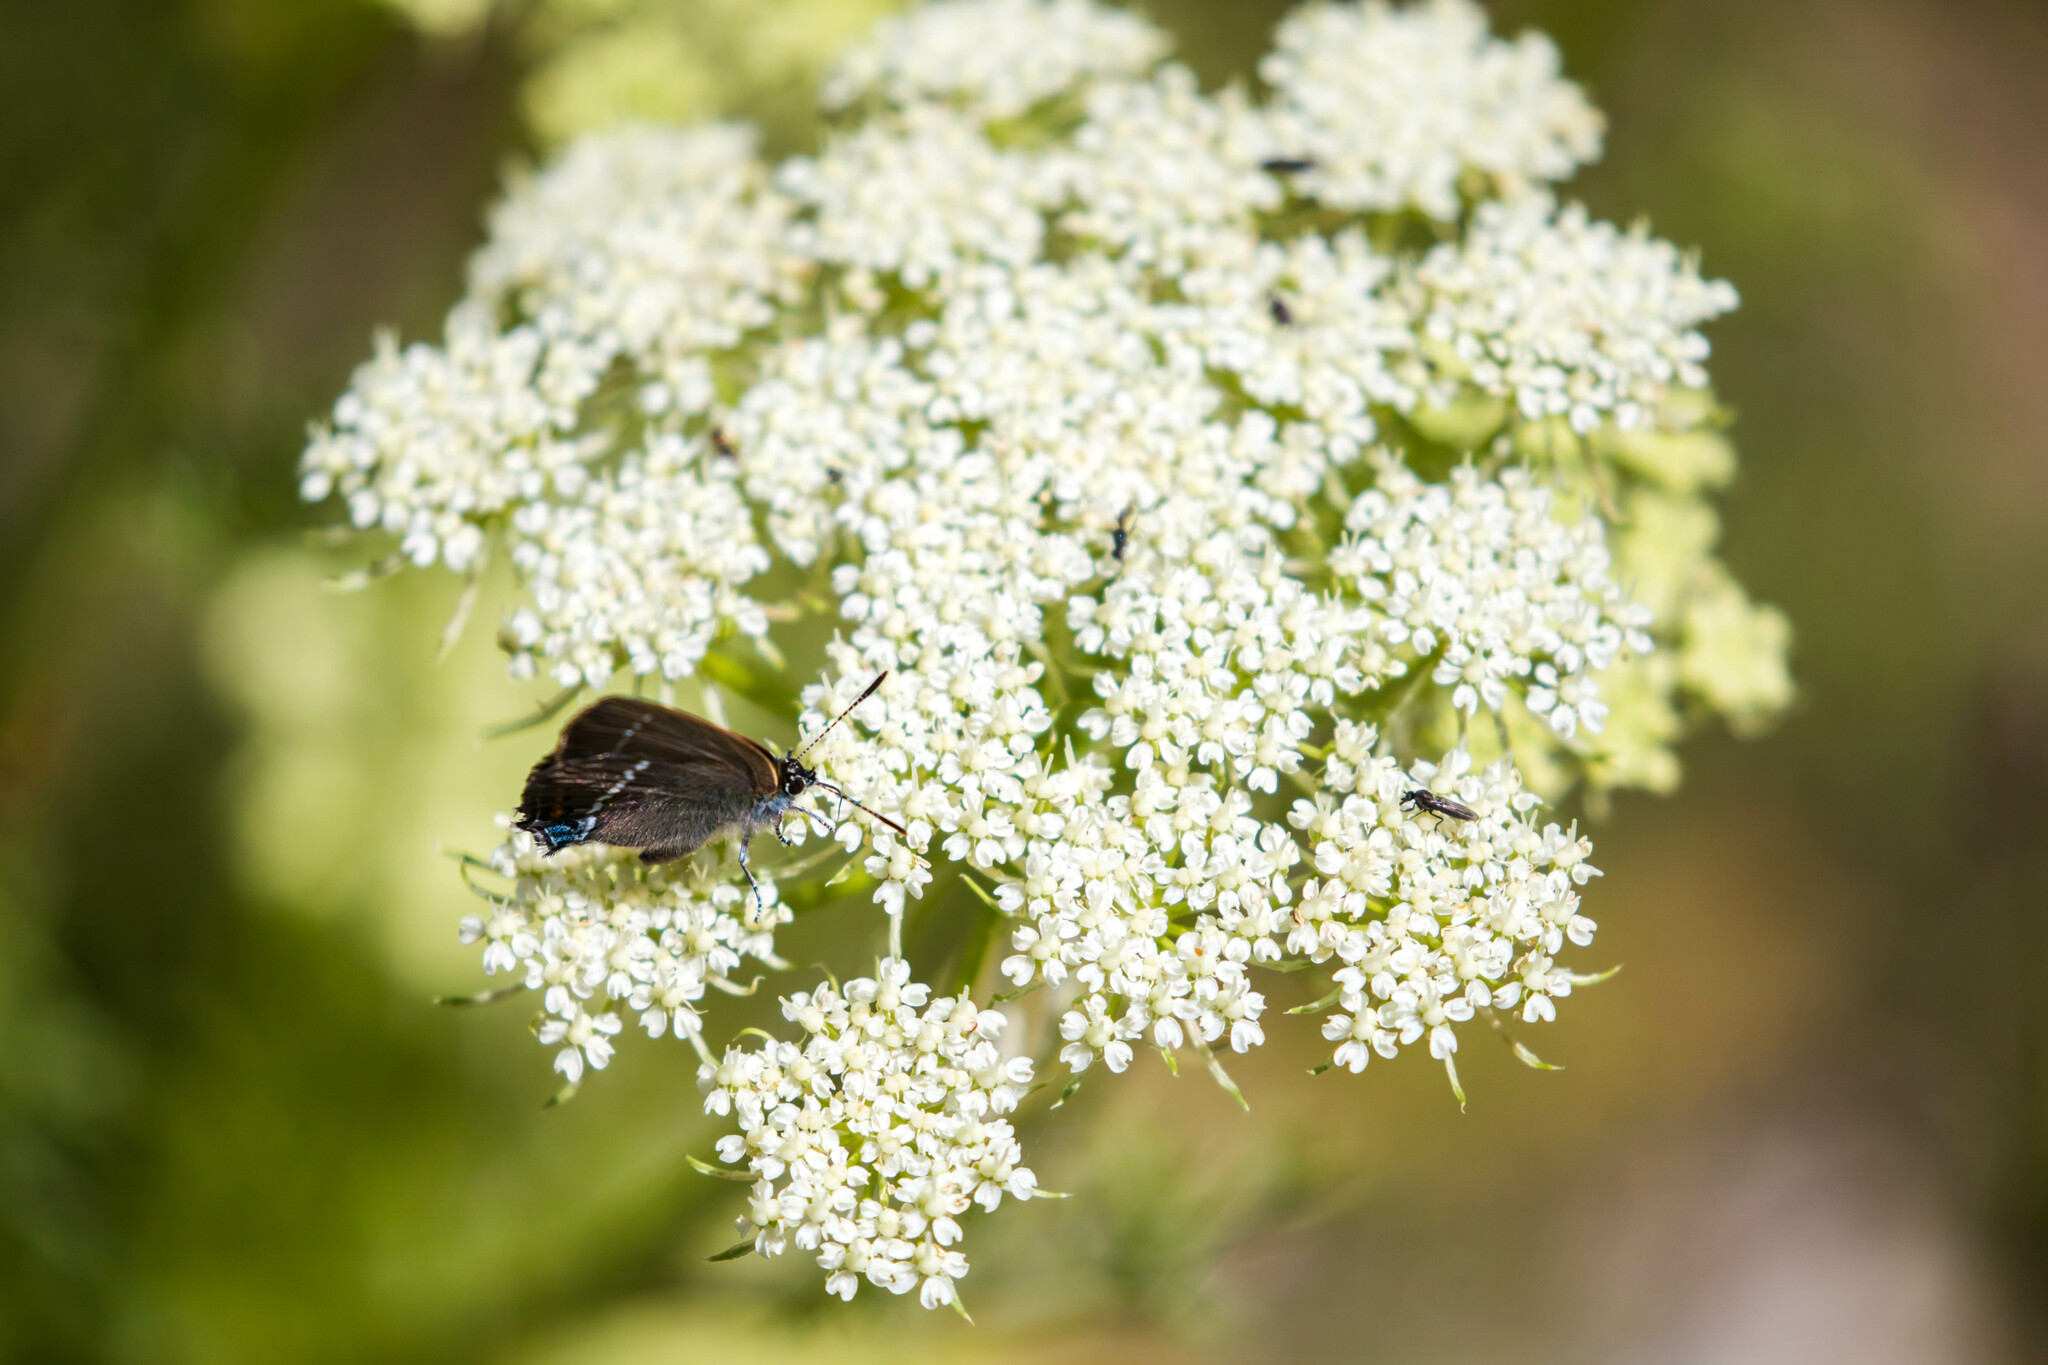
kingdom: Animalia
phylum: Arthropoda
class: Insecta
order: Lepidoptera
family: Lycaenidae
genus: Tuttiola
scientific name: Tuttiola spini
